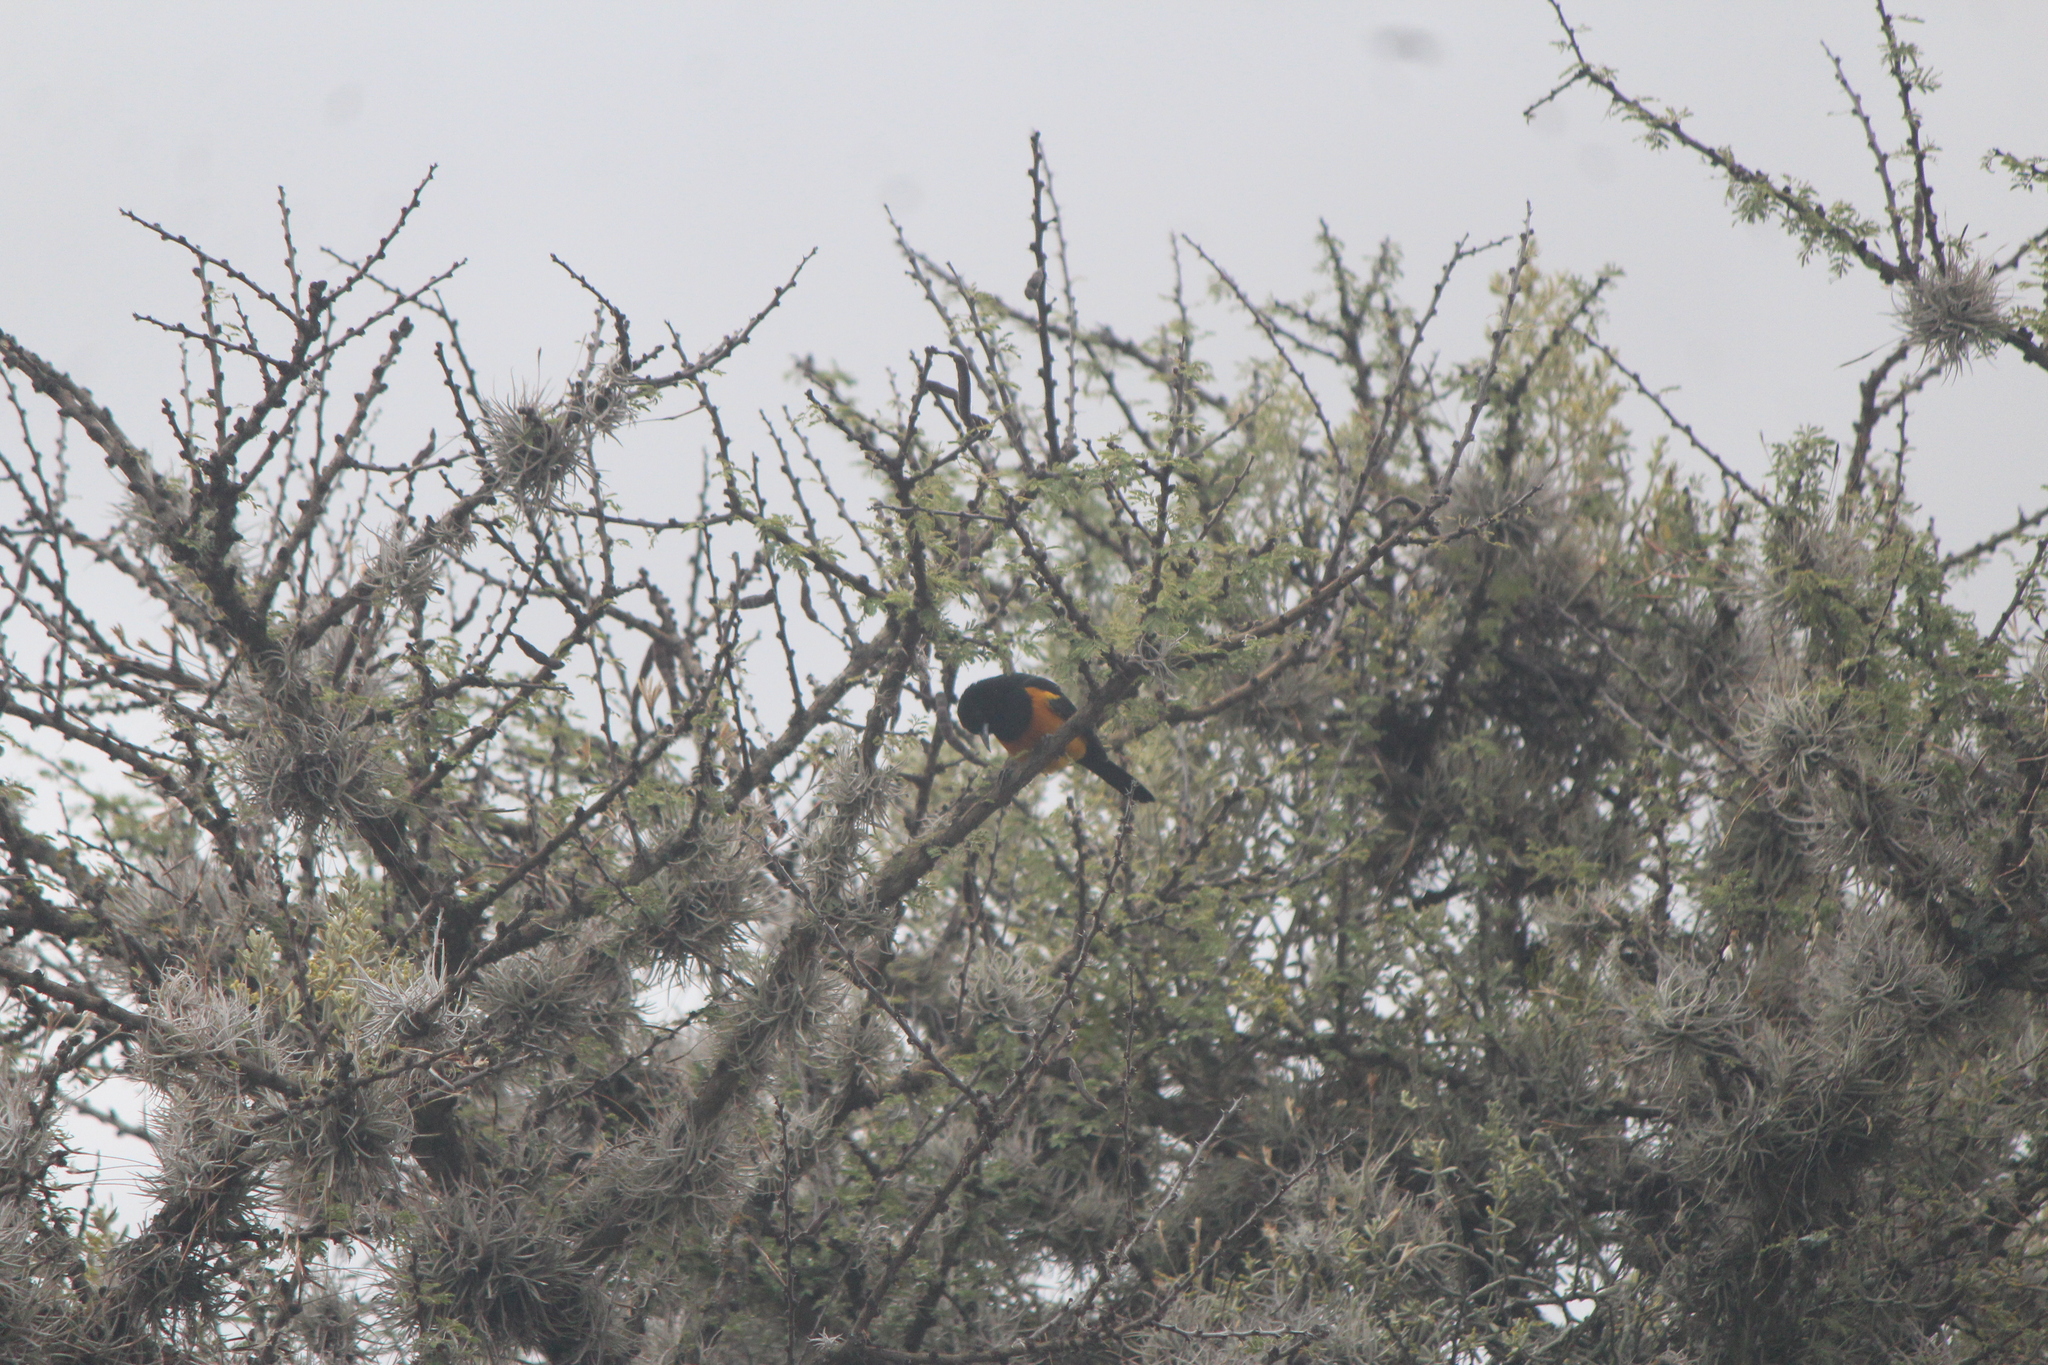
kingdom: Animalia
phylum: Chordata
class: Aves
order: Passeriformes
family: Icteridae
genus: Icterus
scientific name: Icterus wagleri
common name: Black-vented oriole
